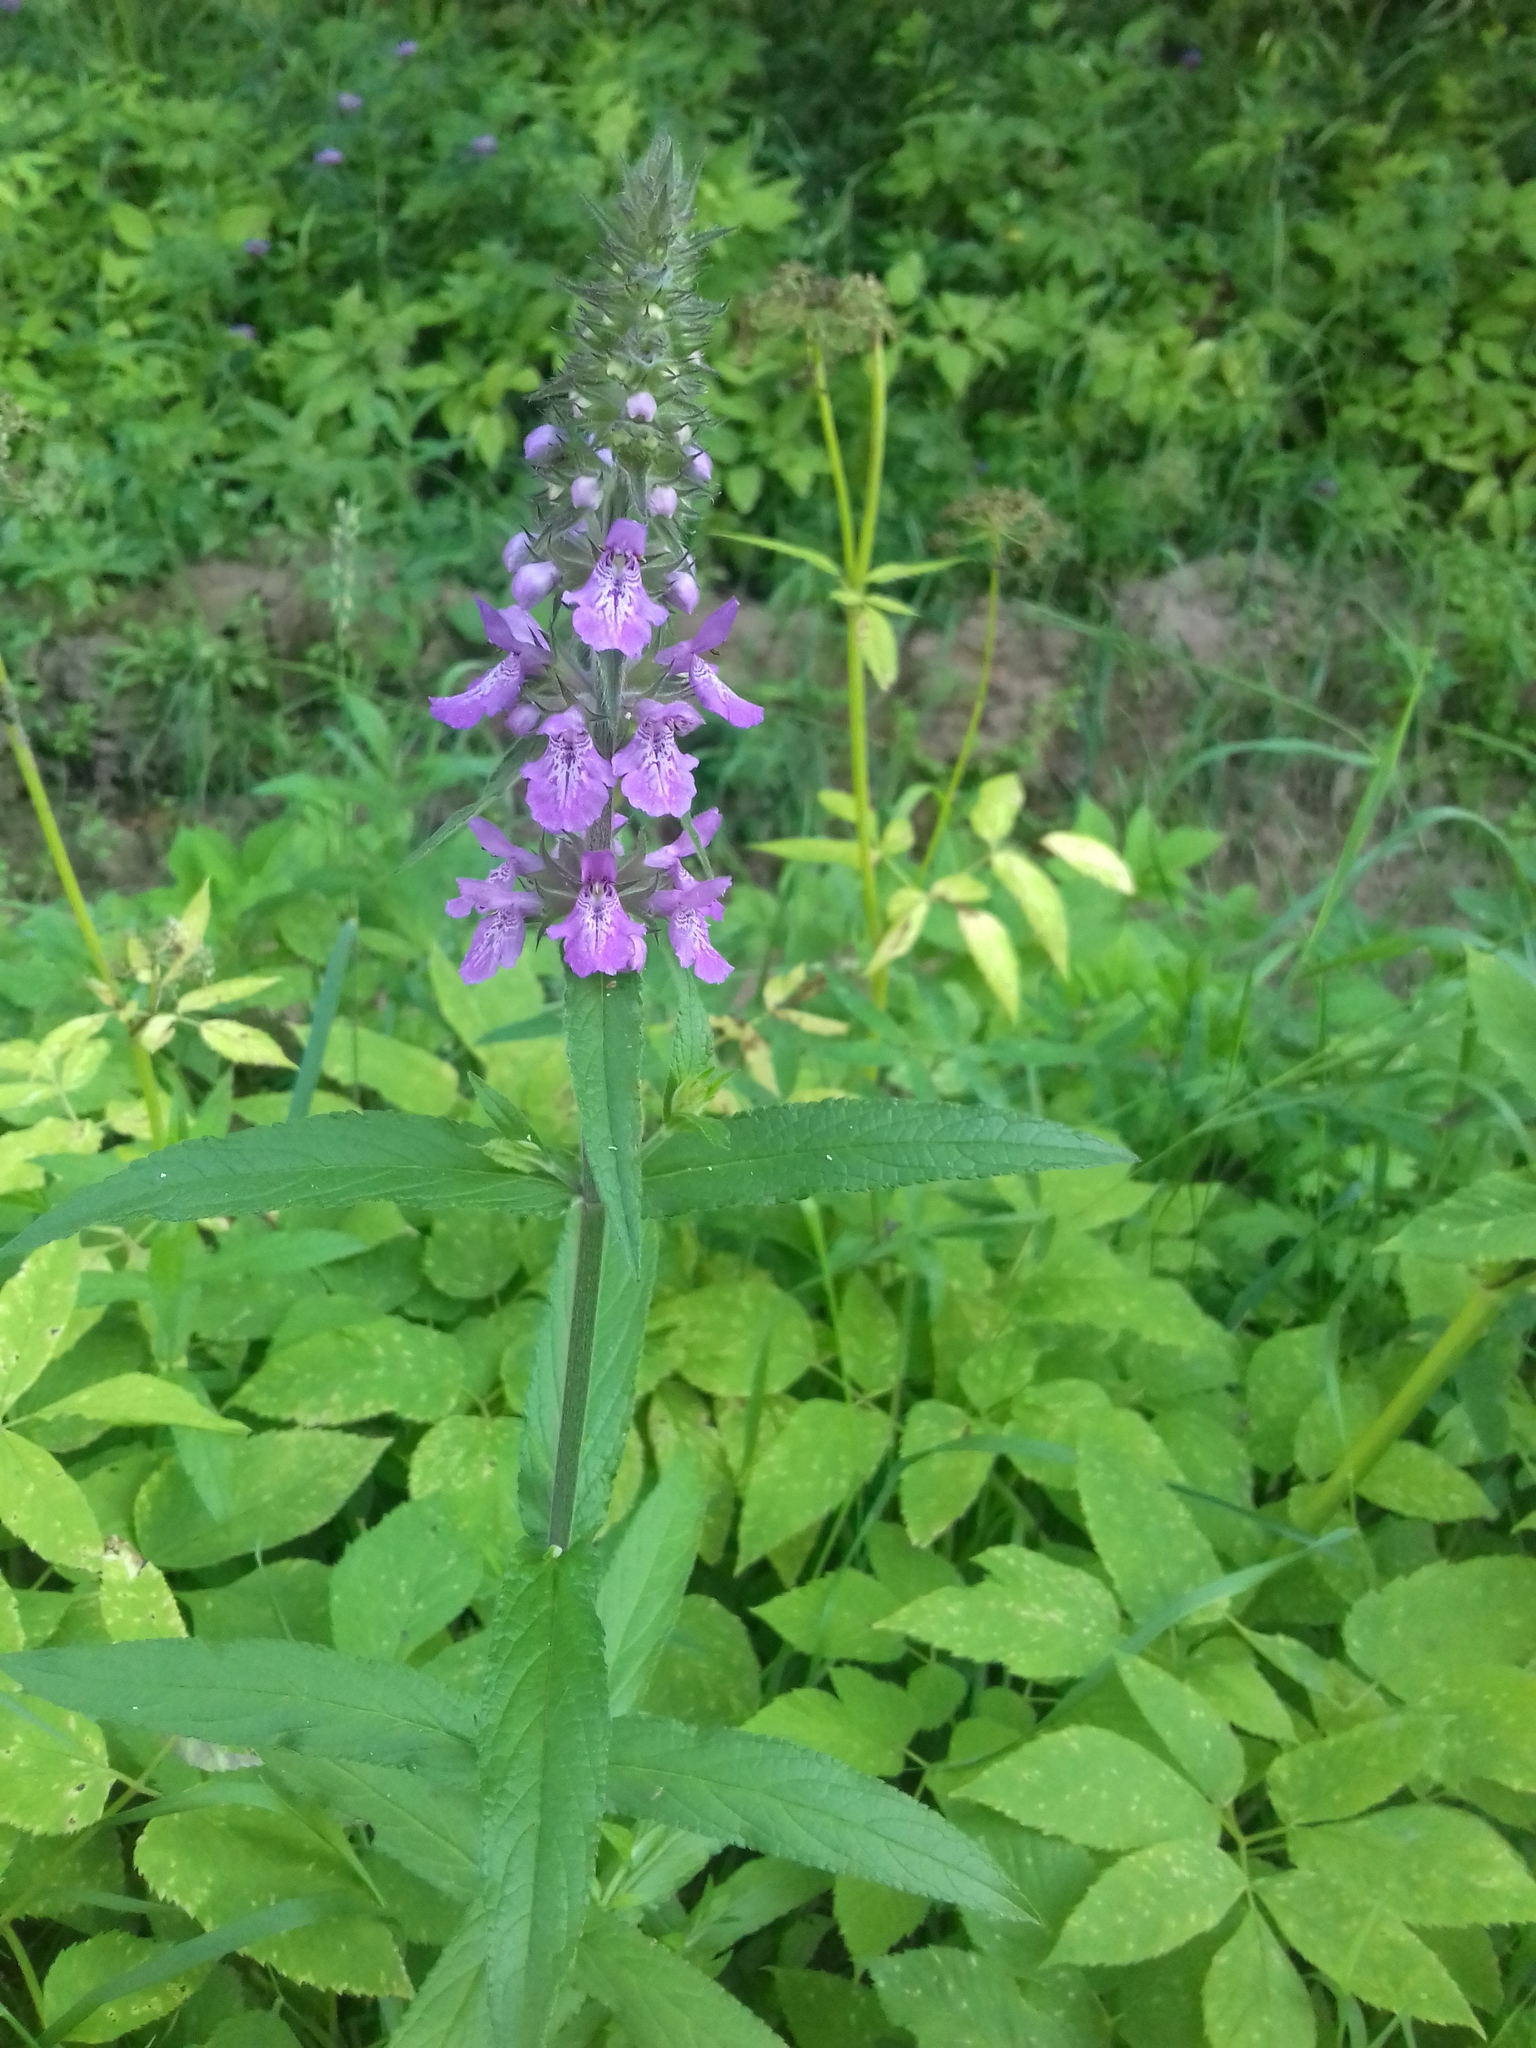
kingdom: Plantae
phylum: Tracheophyta
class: Magnoliopsida
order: Lamiales
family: Lamiaceae
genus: Stachys
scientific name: Stachys palustris
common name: Marsh woundwort
